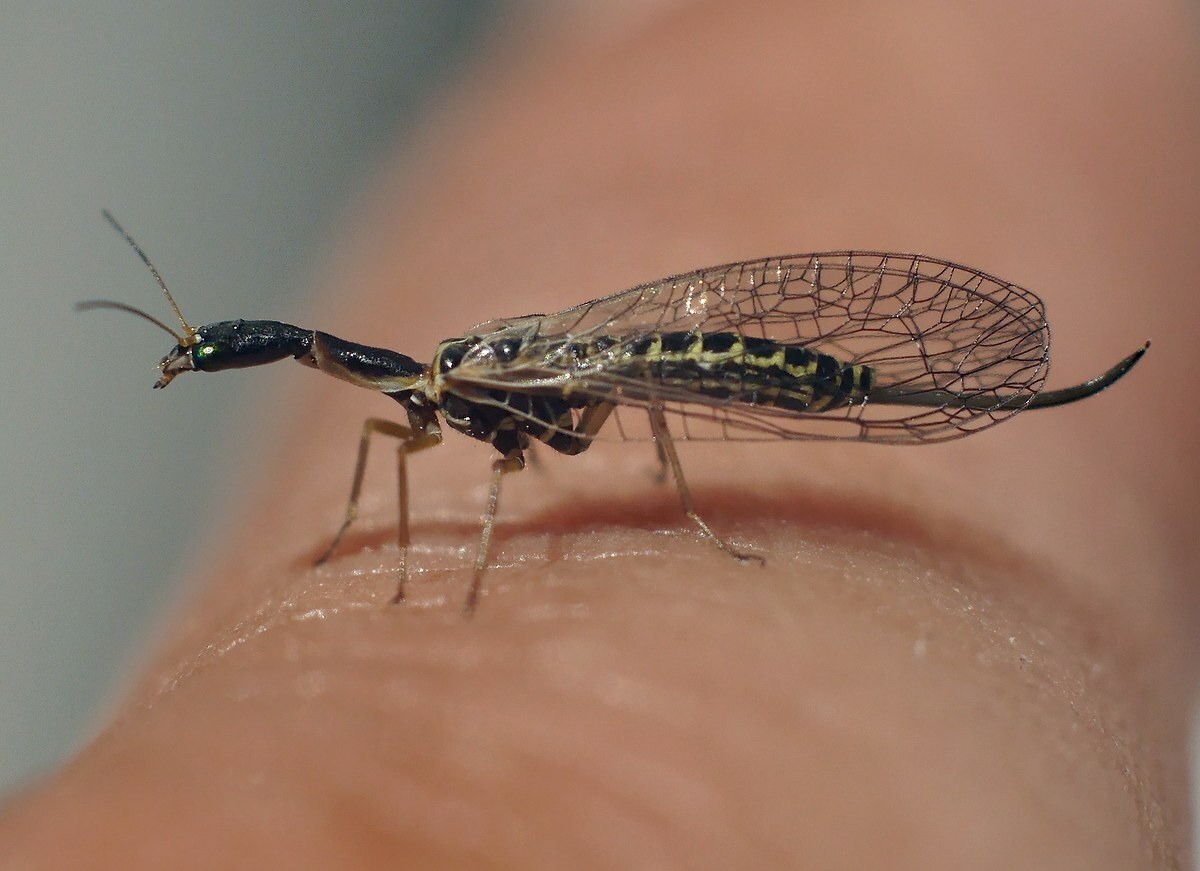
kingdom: Animalia
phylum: Arthropoda
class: Insecta
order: Raphidioptera
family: Raphidiidae
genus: Xanthostigma
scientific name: Xanthostigma xanthostigma
